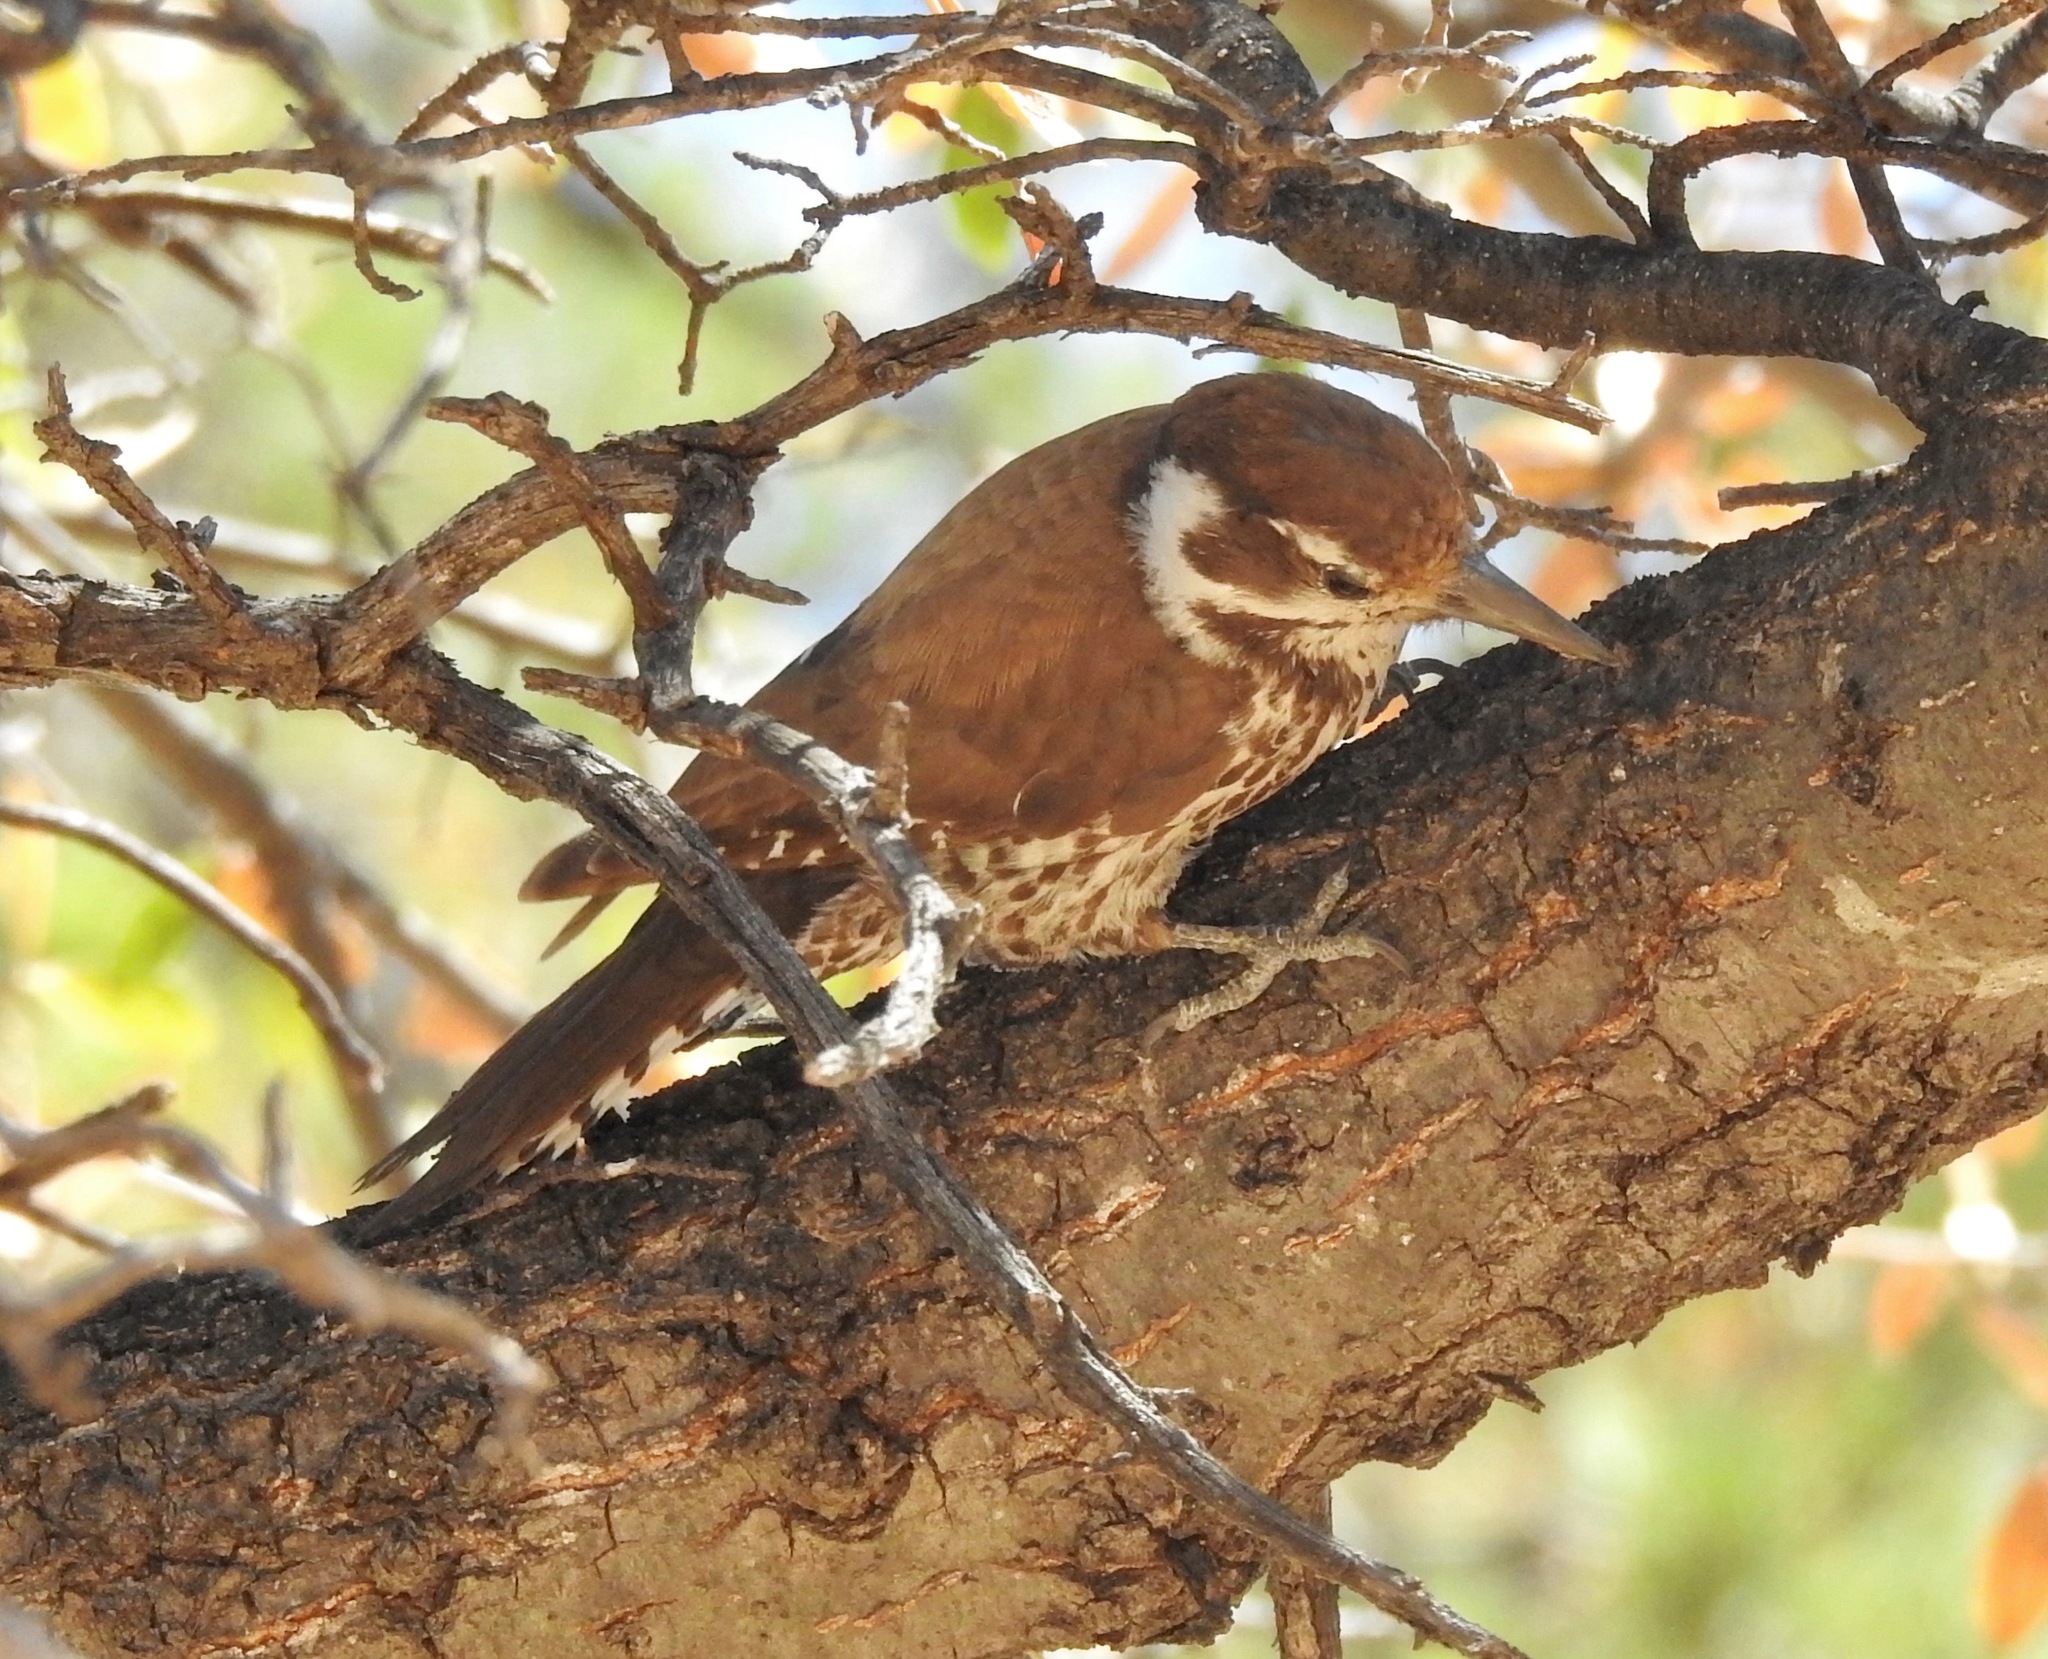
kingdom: Animalia
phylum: Chordata
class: Aves
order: Piciformes
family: Picidae
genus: Leuconotopicus
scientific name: Leuconotopicus arizonae
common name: Arizona woodpecker
